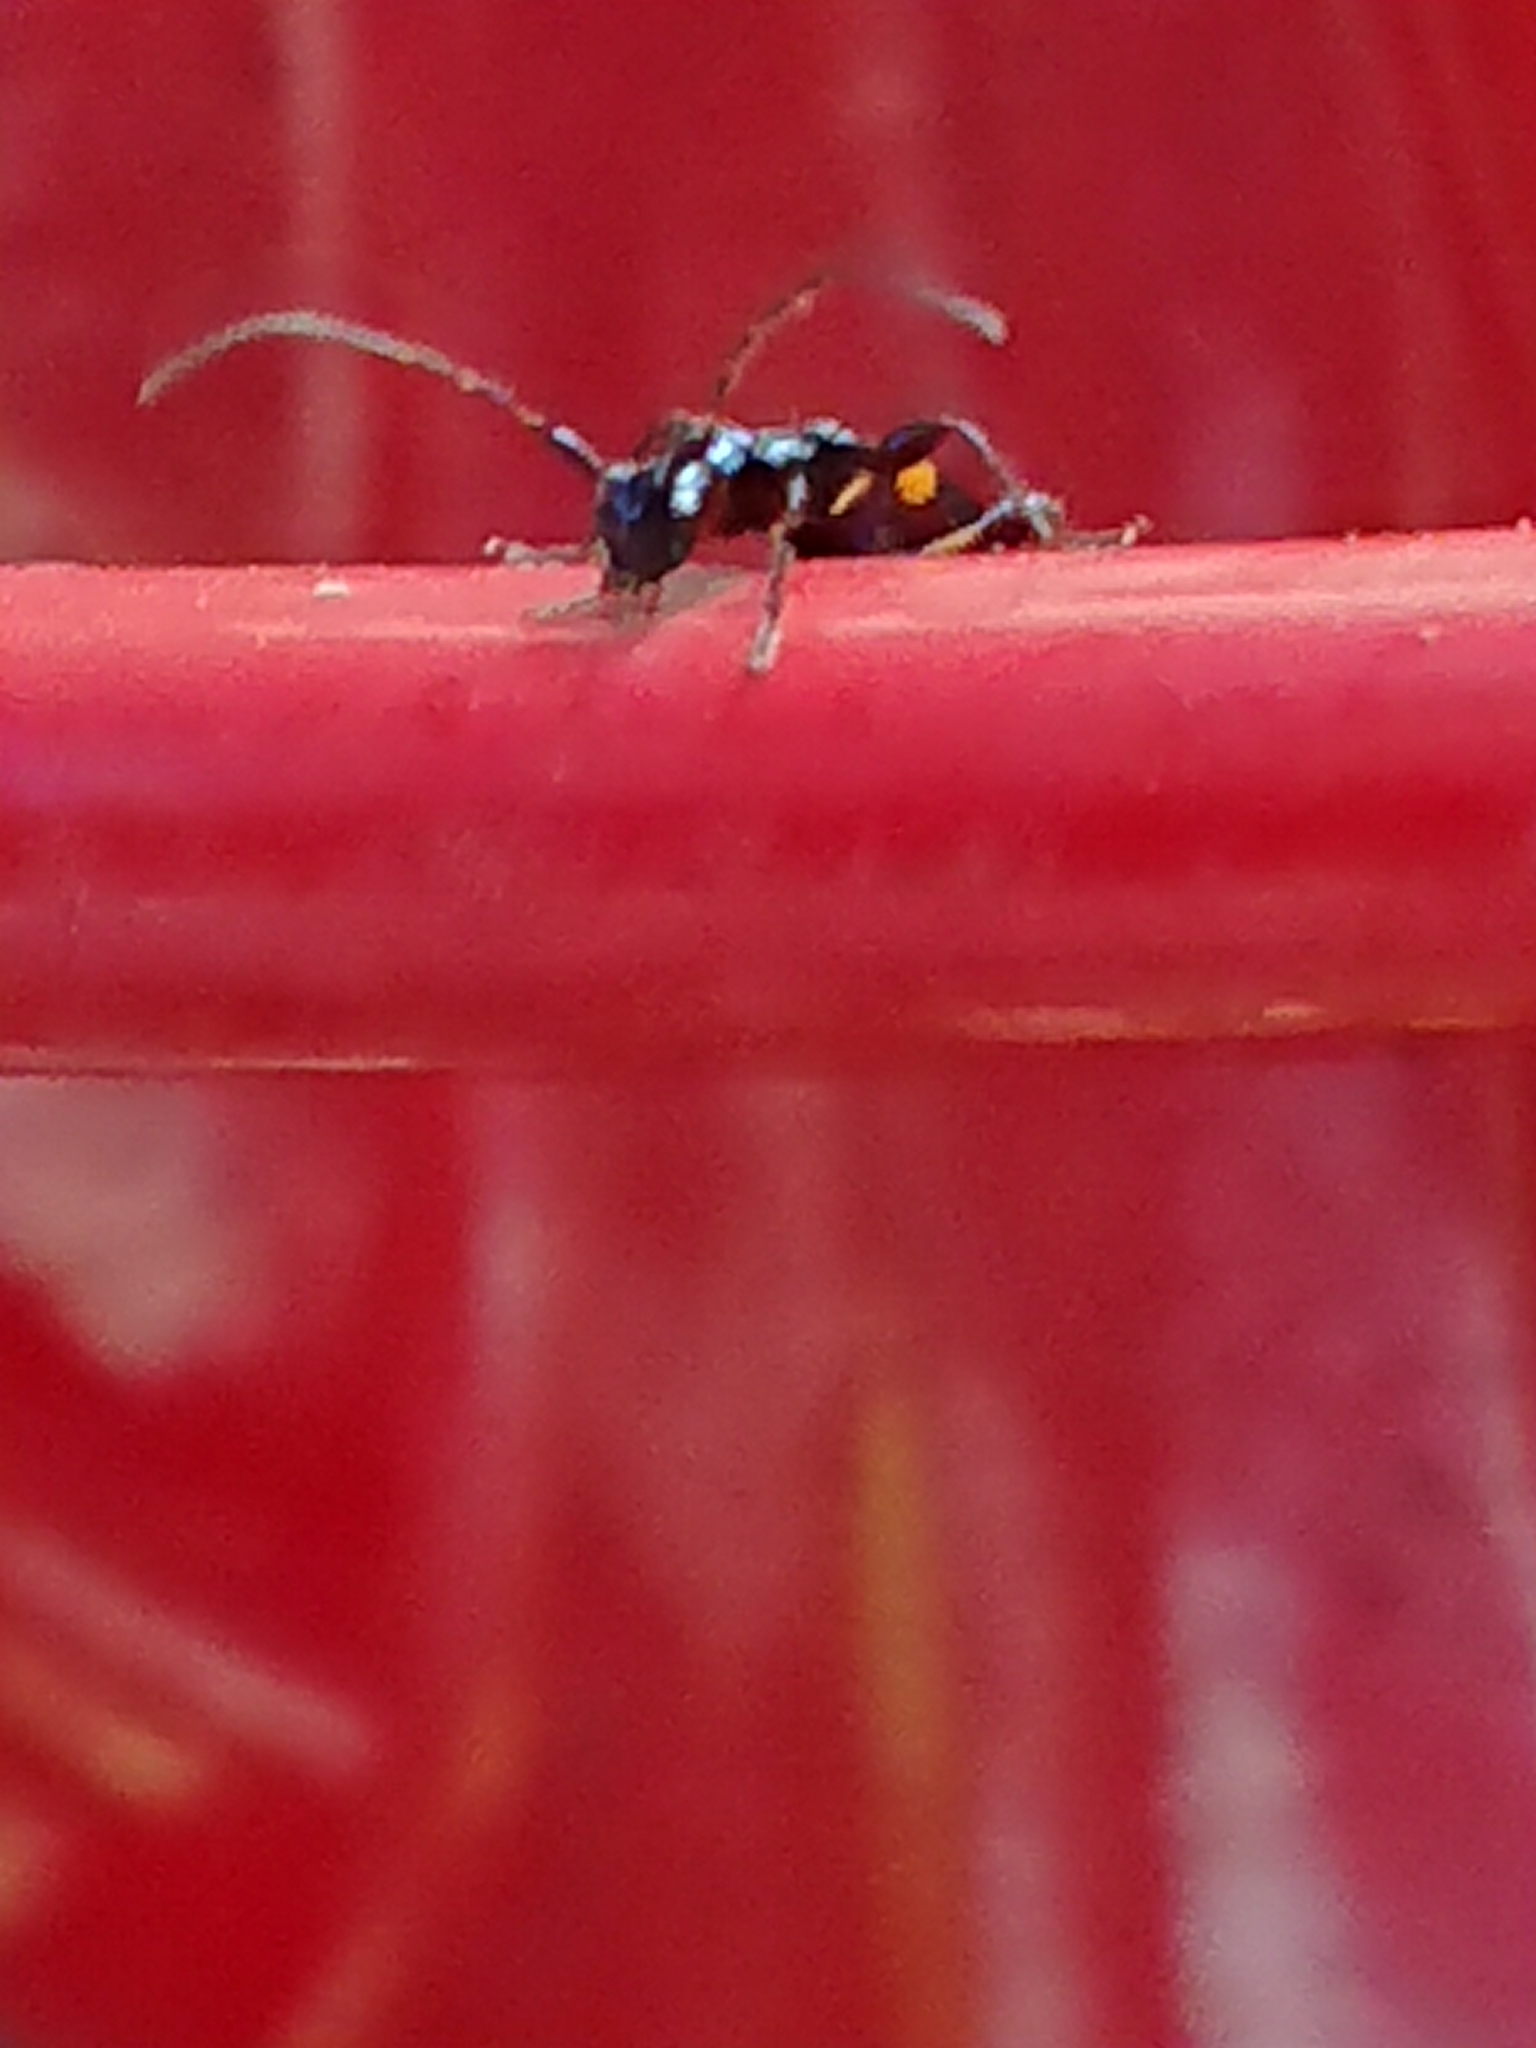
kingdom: Animalia
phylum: Arthropoda
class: Insecta
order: Coleoptera
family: Cerambycidae
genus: Zorion
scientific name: Zorion guttigerum
